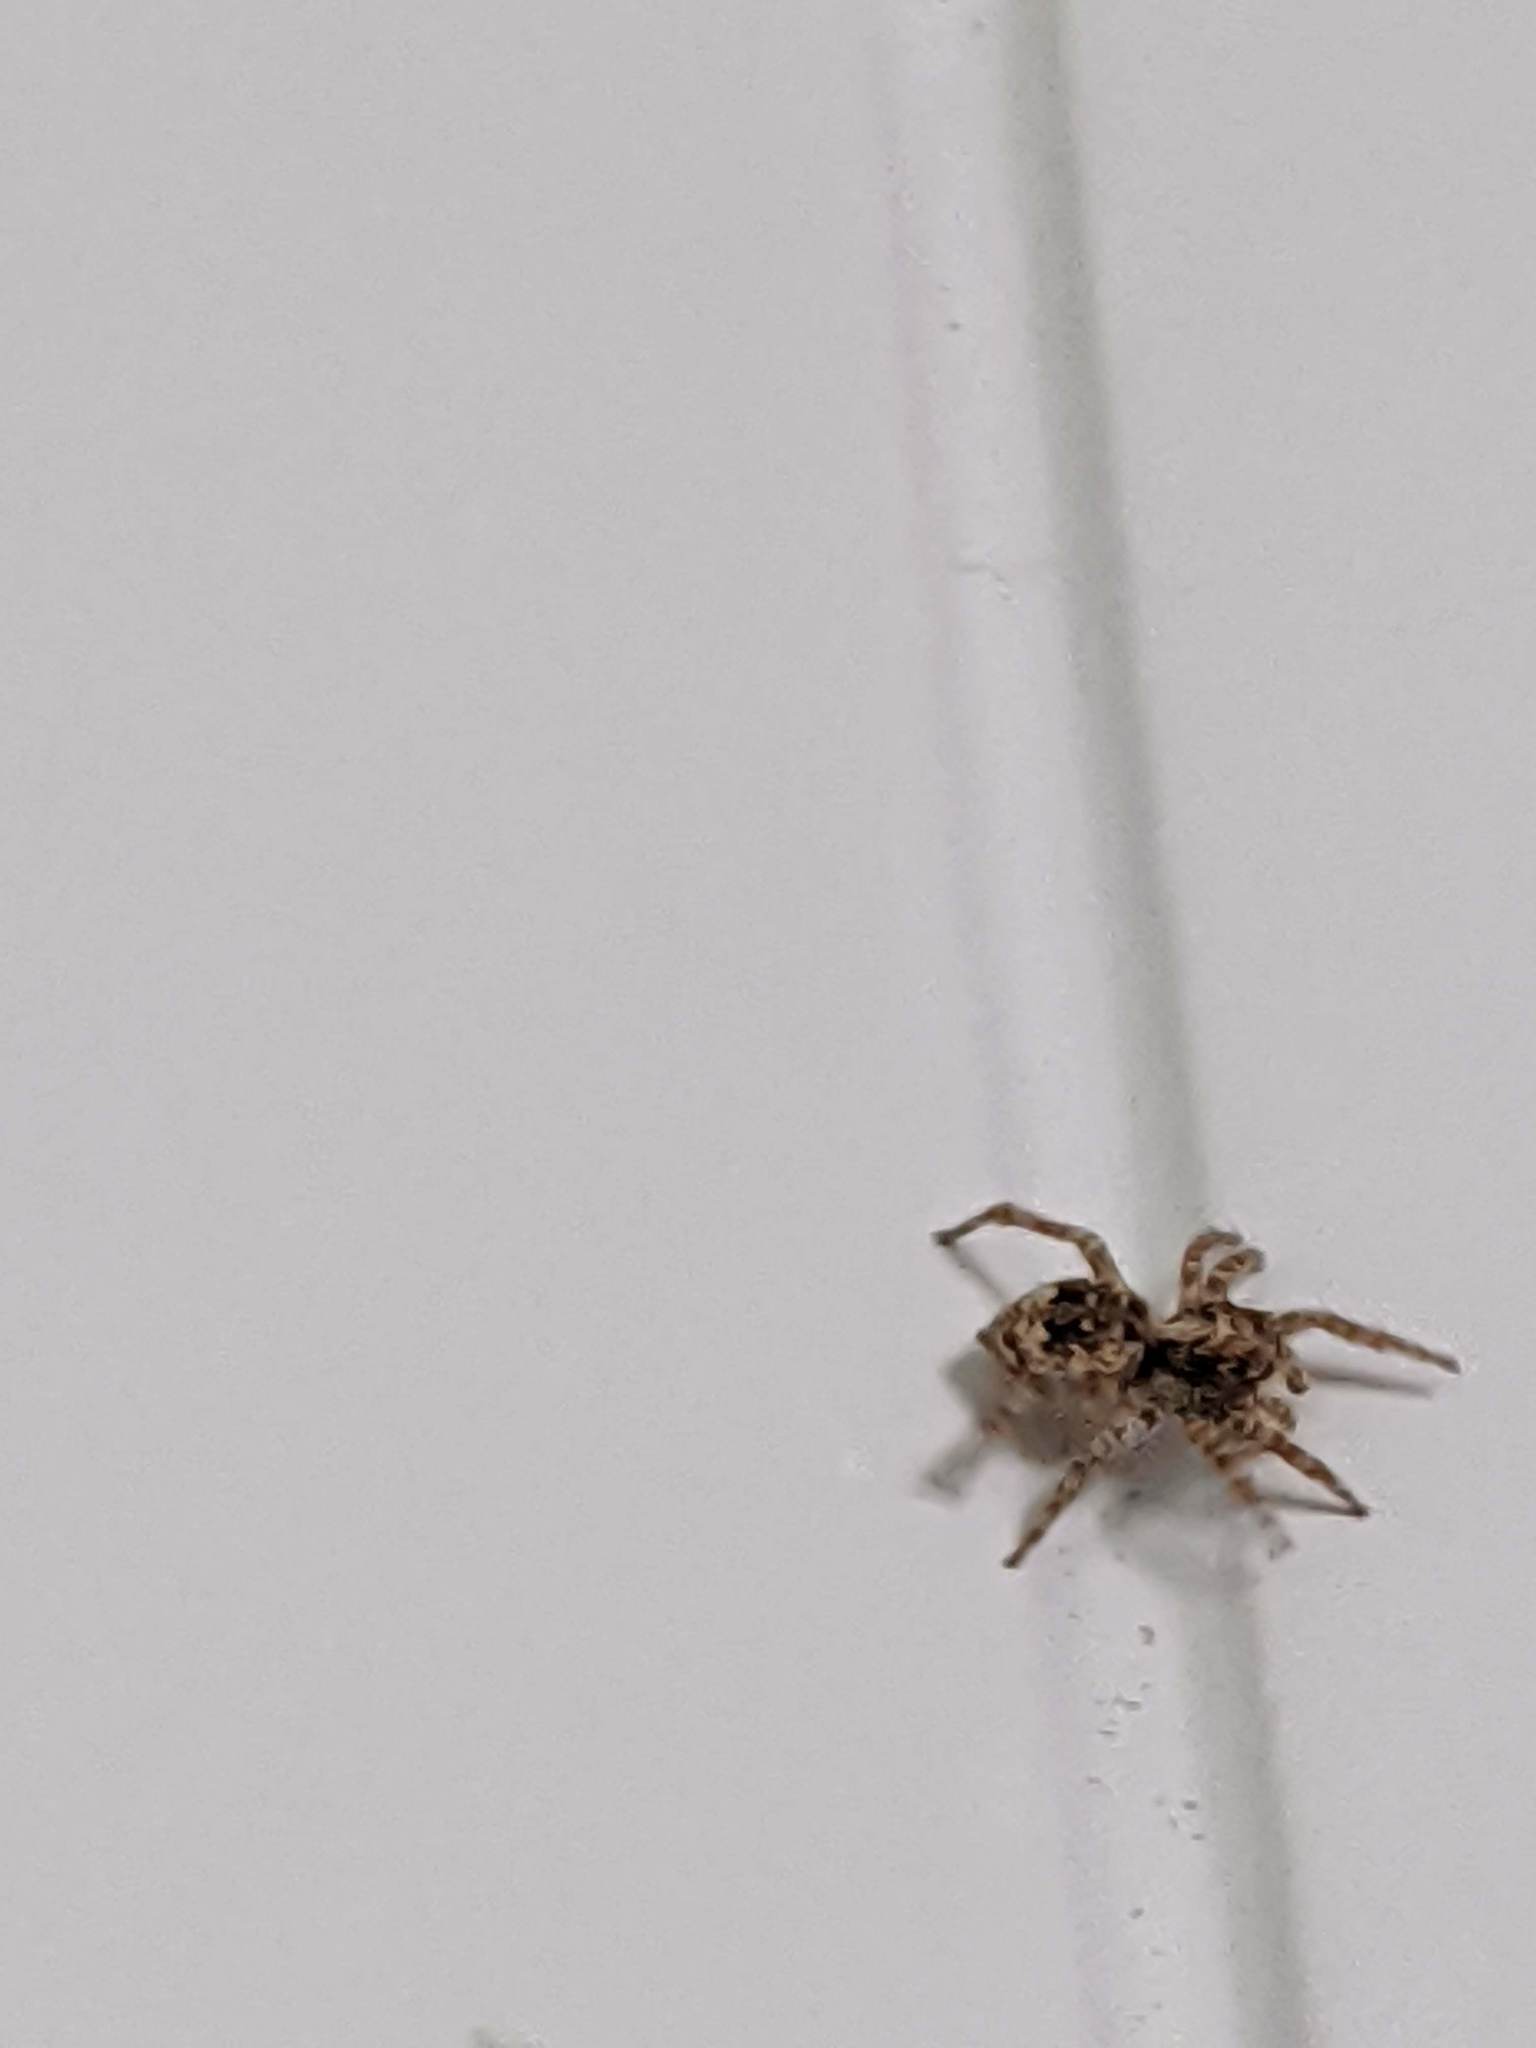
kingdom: Animalia
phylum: Arthropoda
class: Arachnida
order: Araneae
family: Salticidae
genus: Attulus
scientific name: Attulus fasciger
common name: Asiatic wall jumping spider
